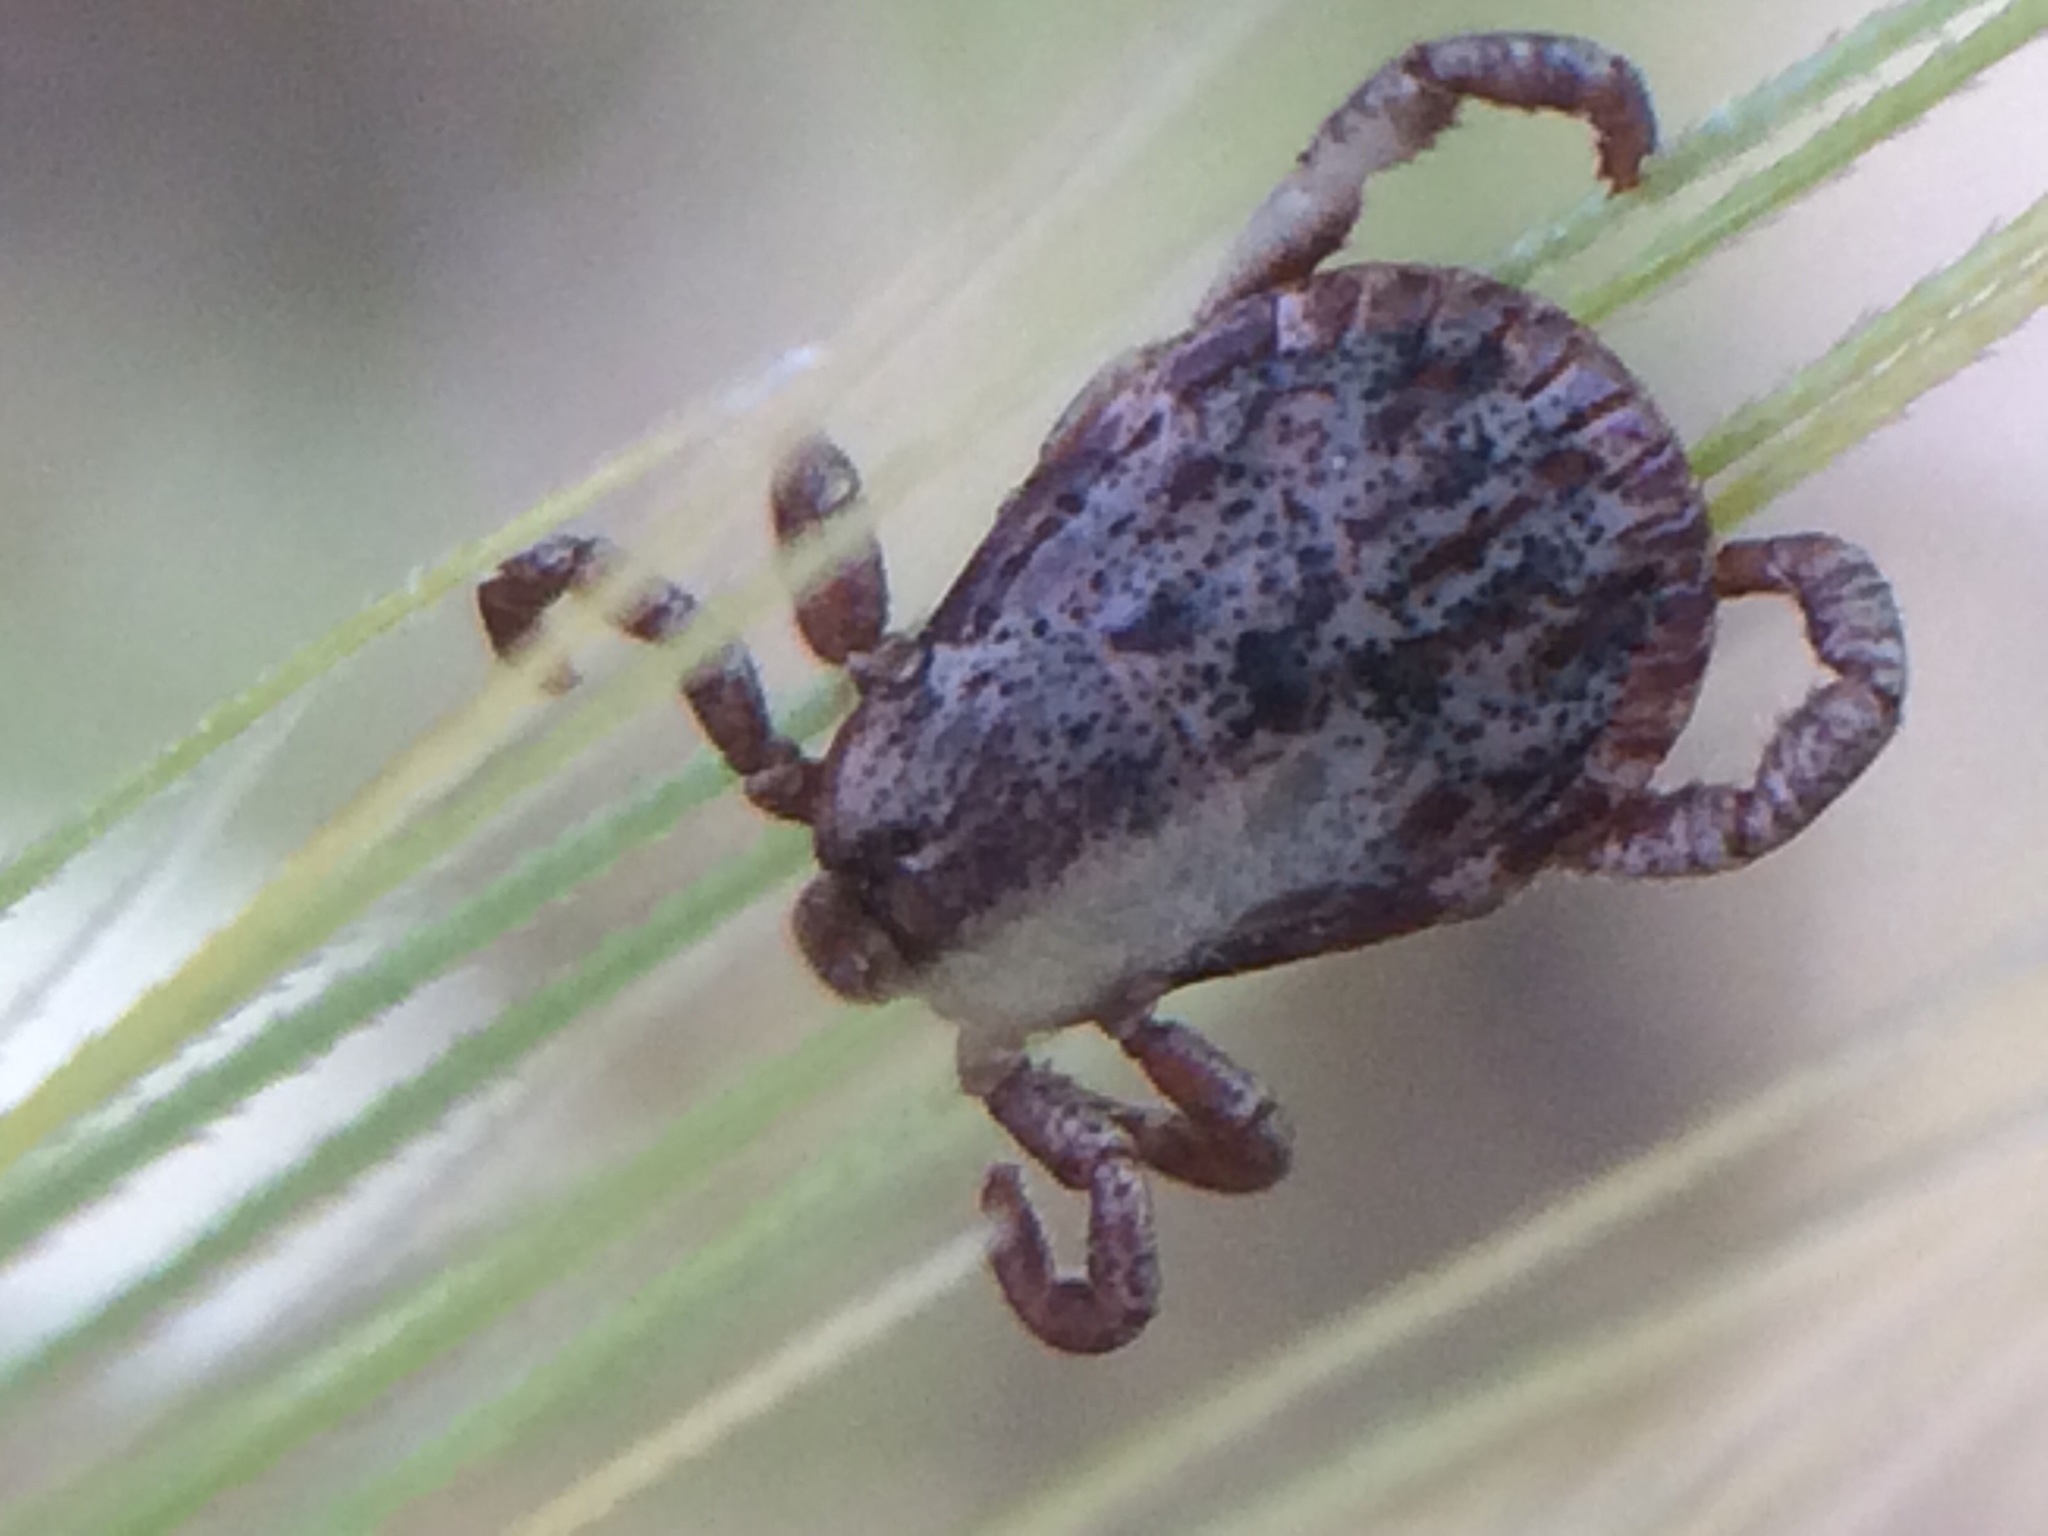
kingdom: Animalia
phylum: Arthropoda
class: Arachnida
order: Ixodida
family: Ixodidae
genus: Dermacentor
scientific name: Dermacentor occidentalis
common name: Net tick
